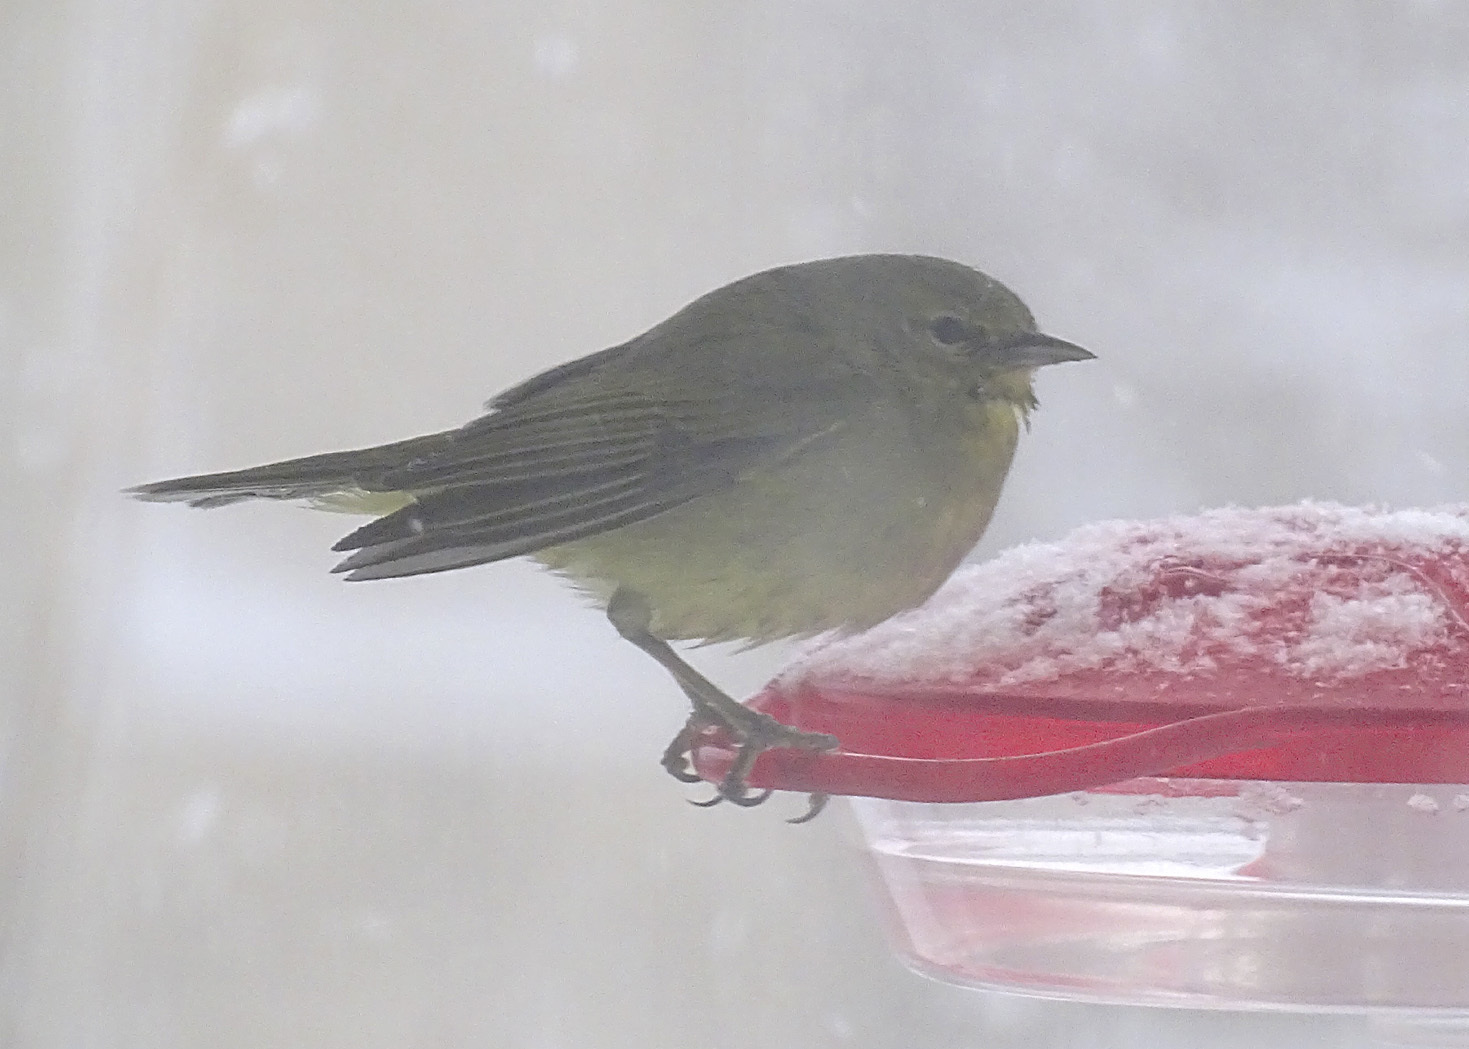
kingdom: Animalia
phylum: Chordata
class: Aves
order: Passeriformes
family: Parulidae
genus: Leiothlypis
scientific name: Leiothlypis celata
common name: Orange-crowned warbler
